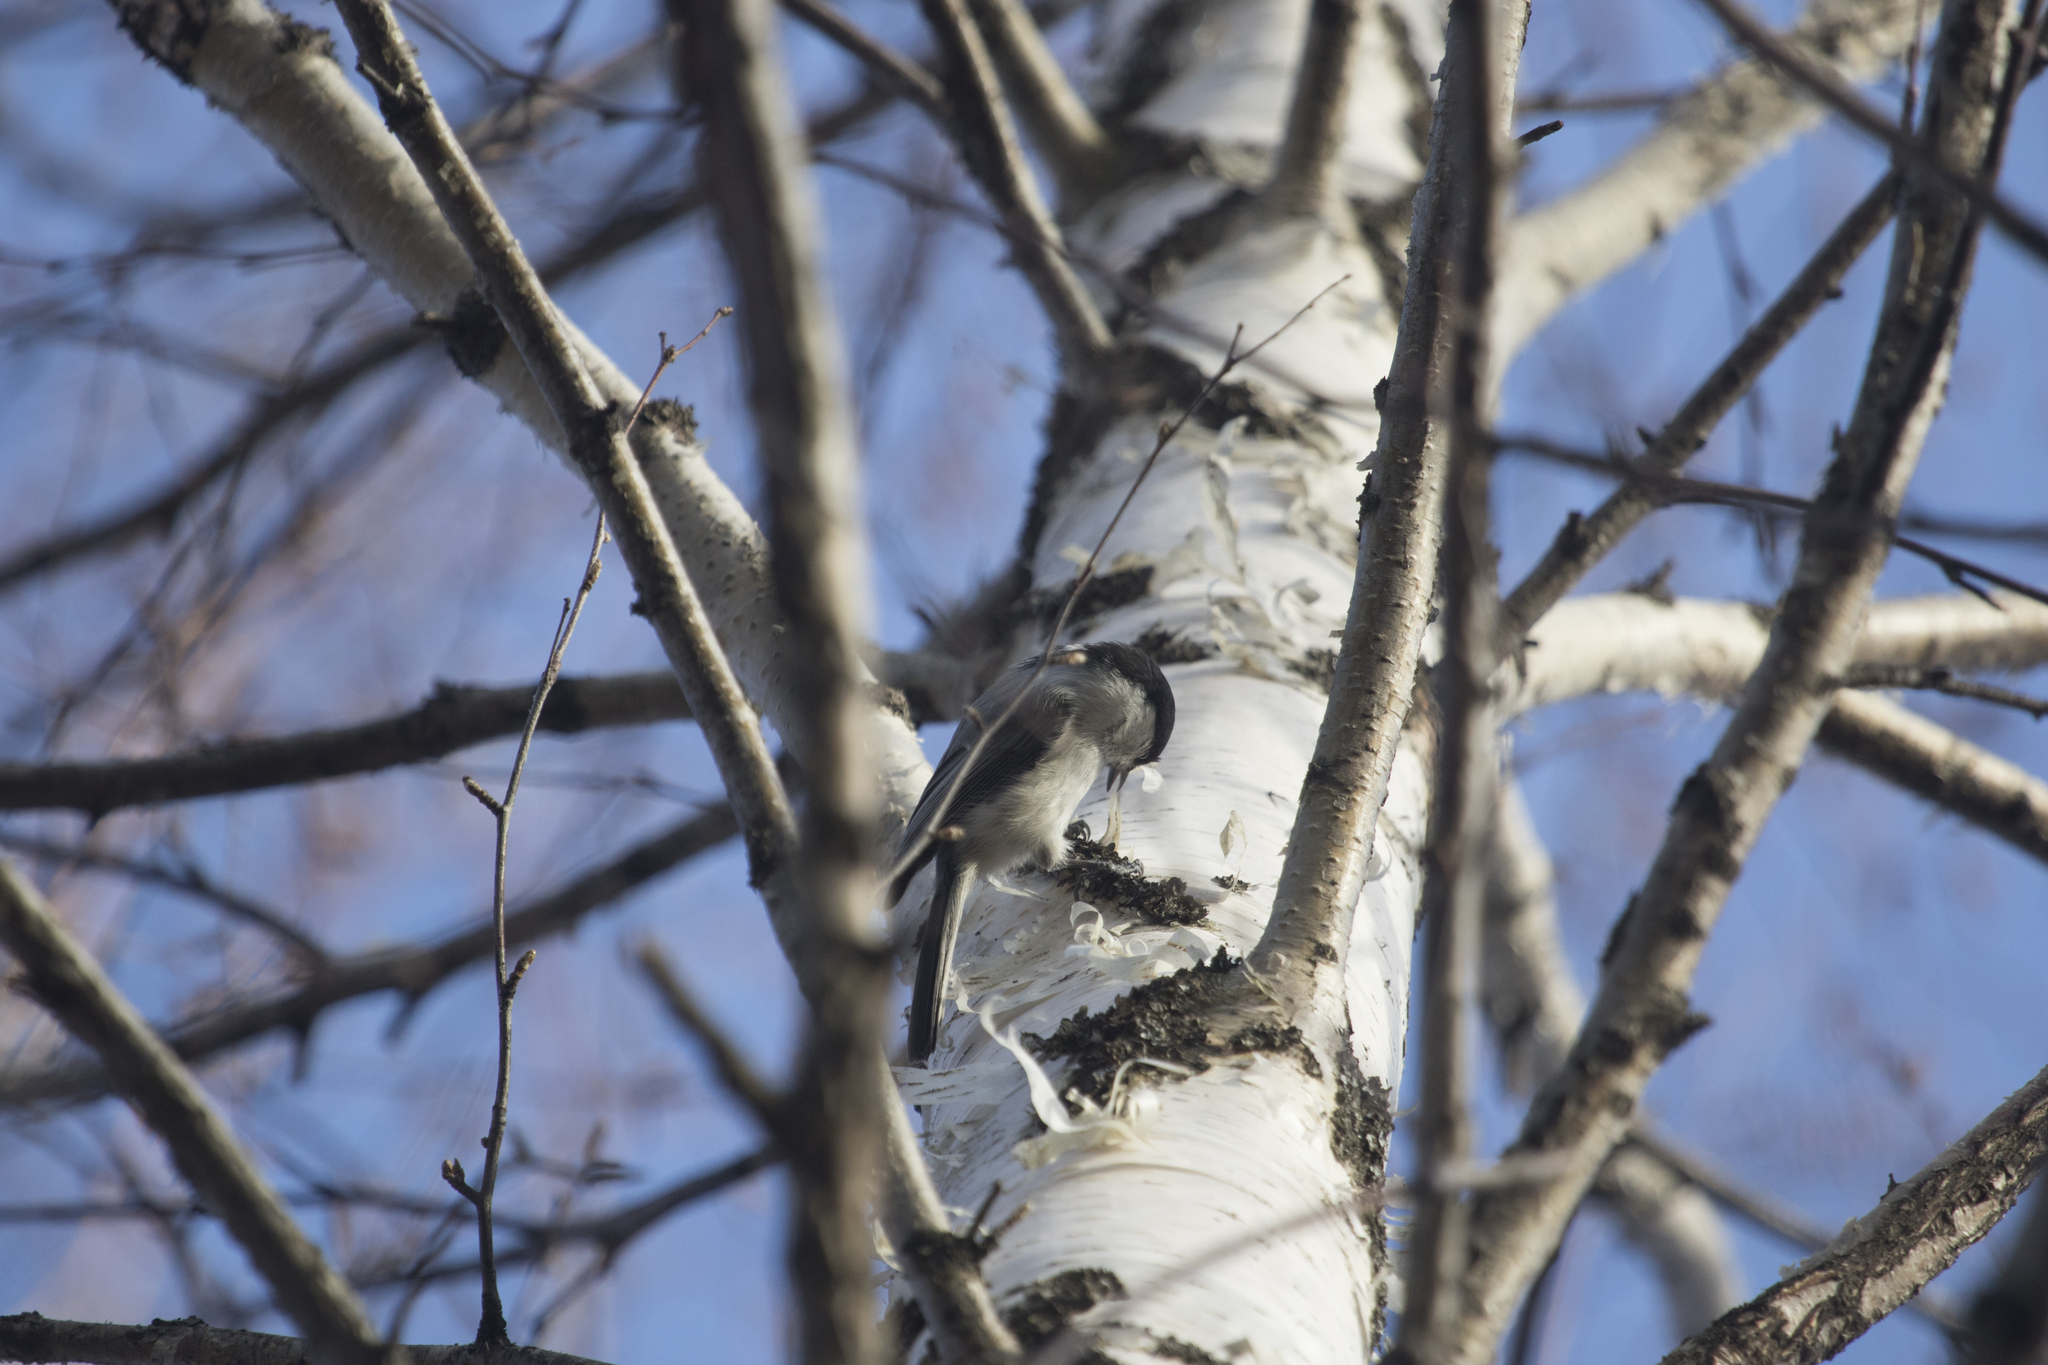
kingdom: Animalia
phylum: Chordata
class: Aves
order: Passeriformes
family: Paridae
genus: Poecile
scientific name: Poecile montanus
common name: Willow tit
